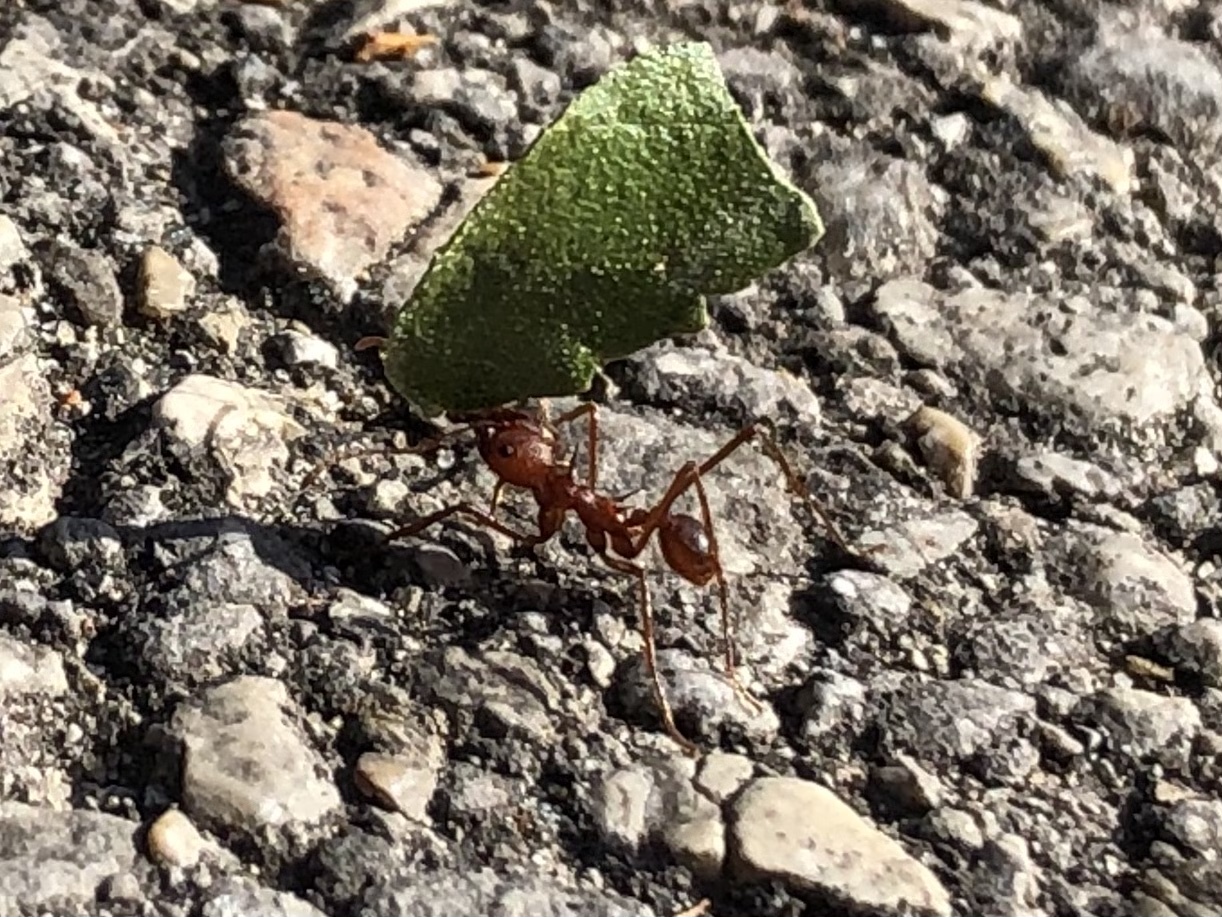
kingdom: Animalia
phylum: Arthropoda
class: Insecta
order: Hymenoptera
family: Formicidae
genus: Atta
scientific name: Atta texana
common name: Texas leafcutting ant
